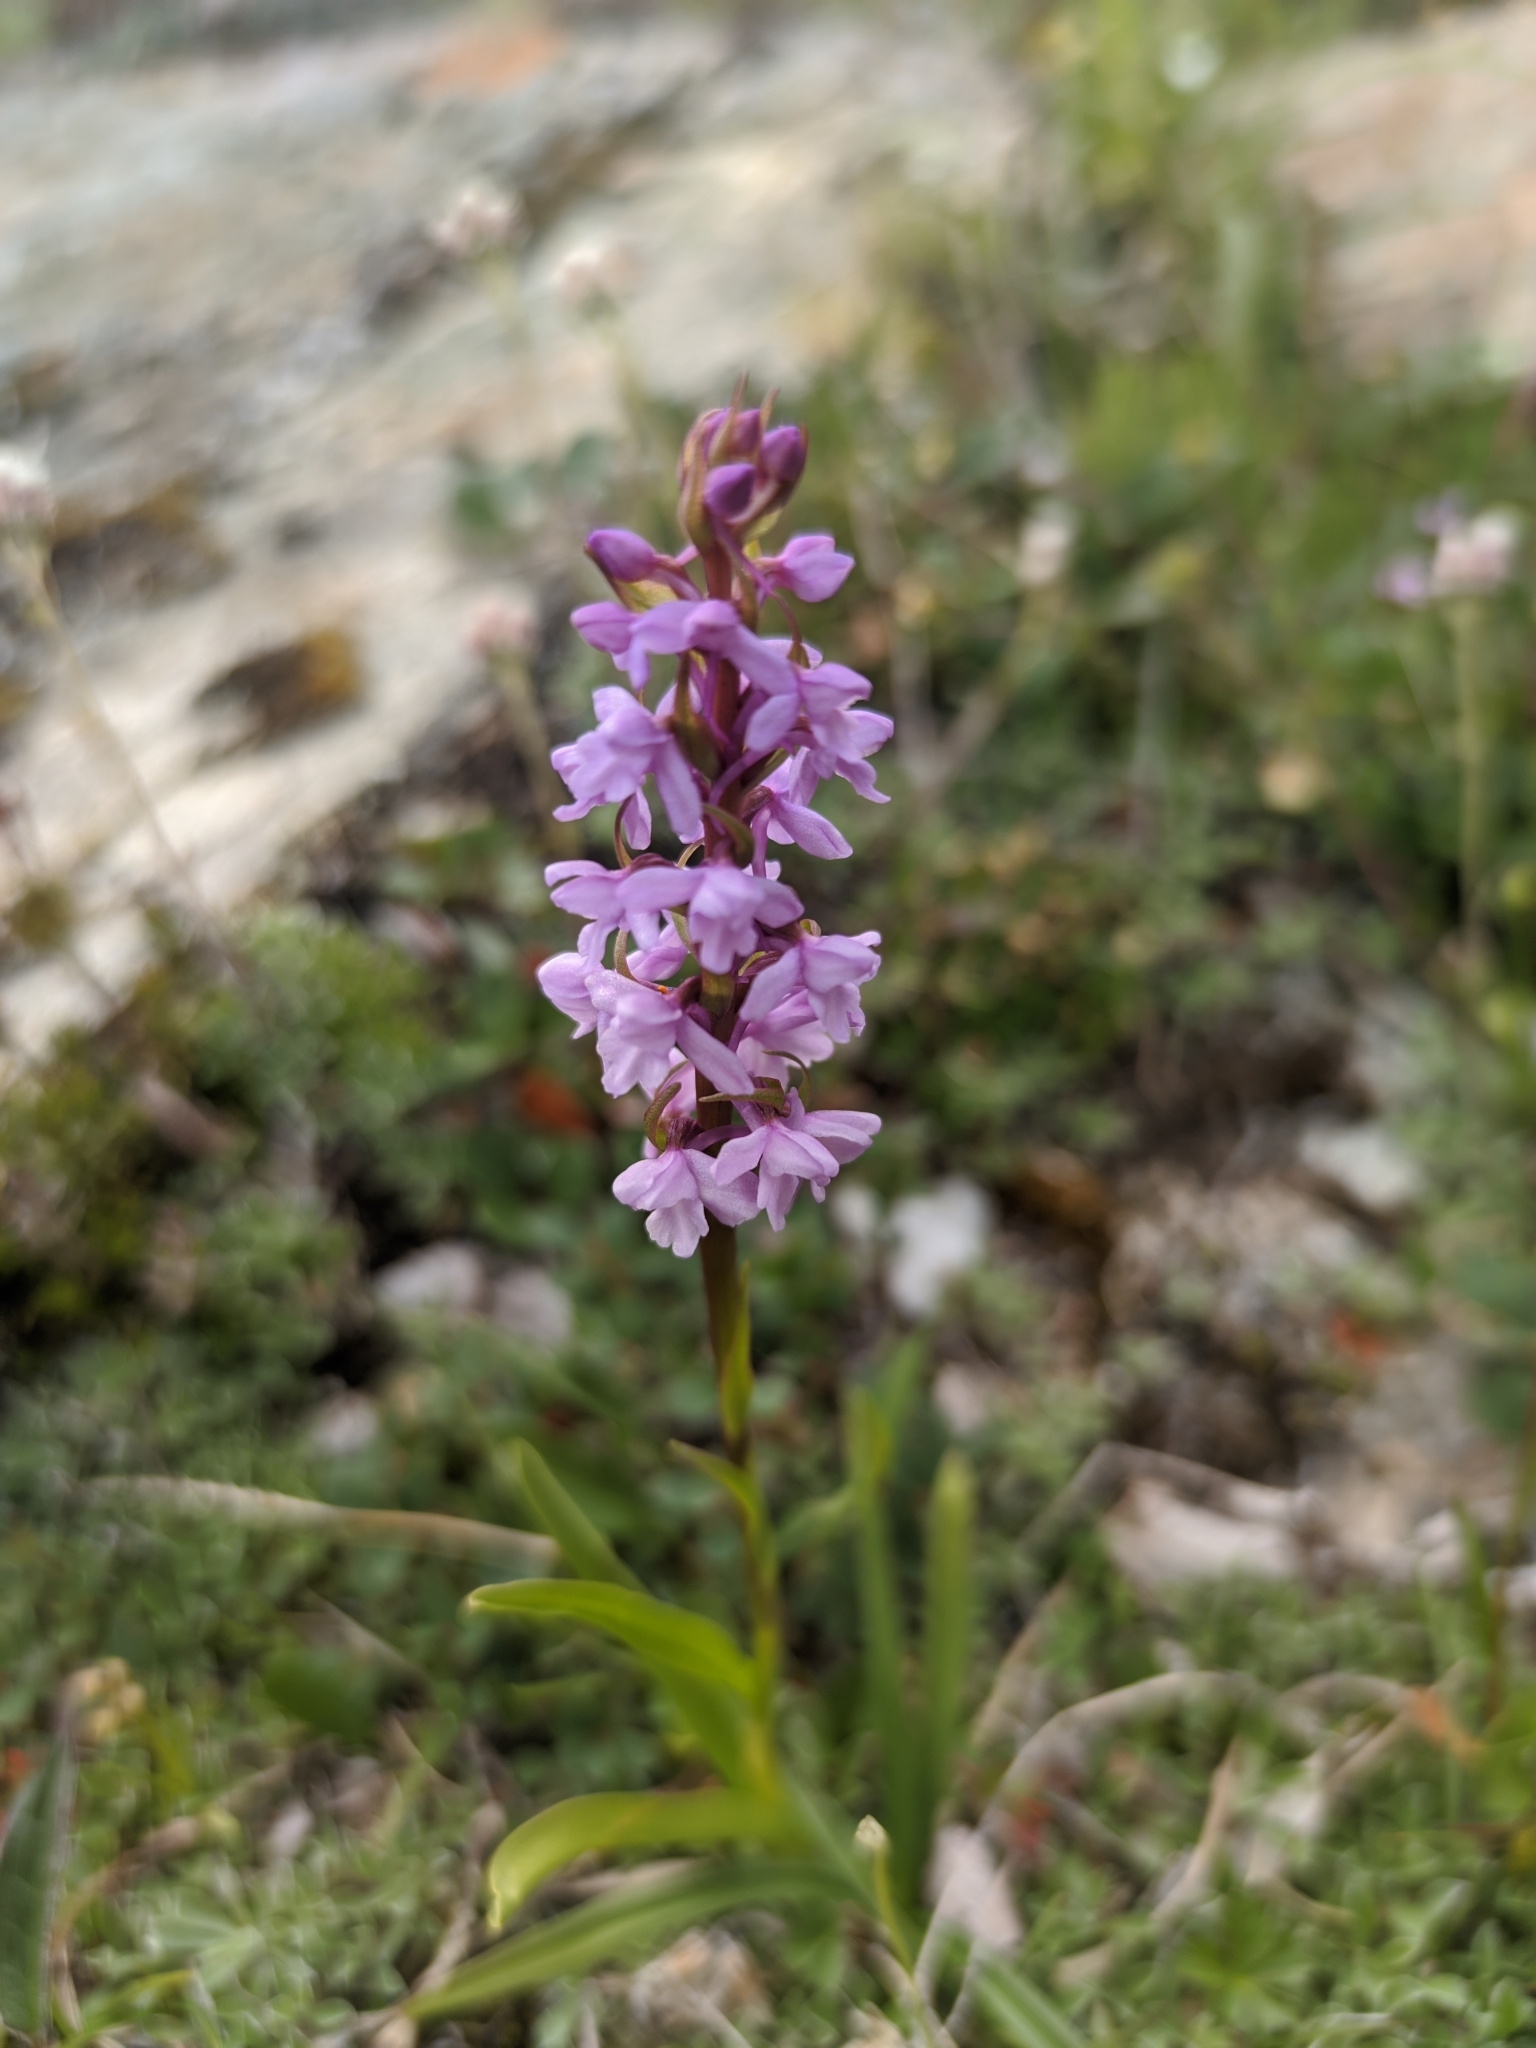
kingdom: Plantae
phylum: Tracheophyta
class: Liliopsida
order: Asparagales
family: Orchidaceae
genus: Gymnadenia
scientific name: Gymnadenia conopsea
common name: Fragrant orchid
